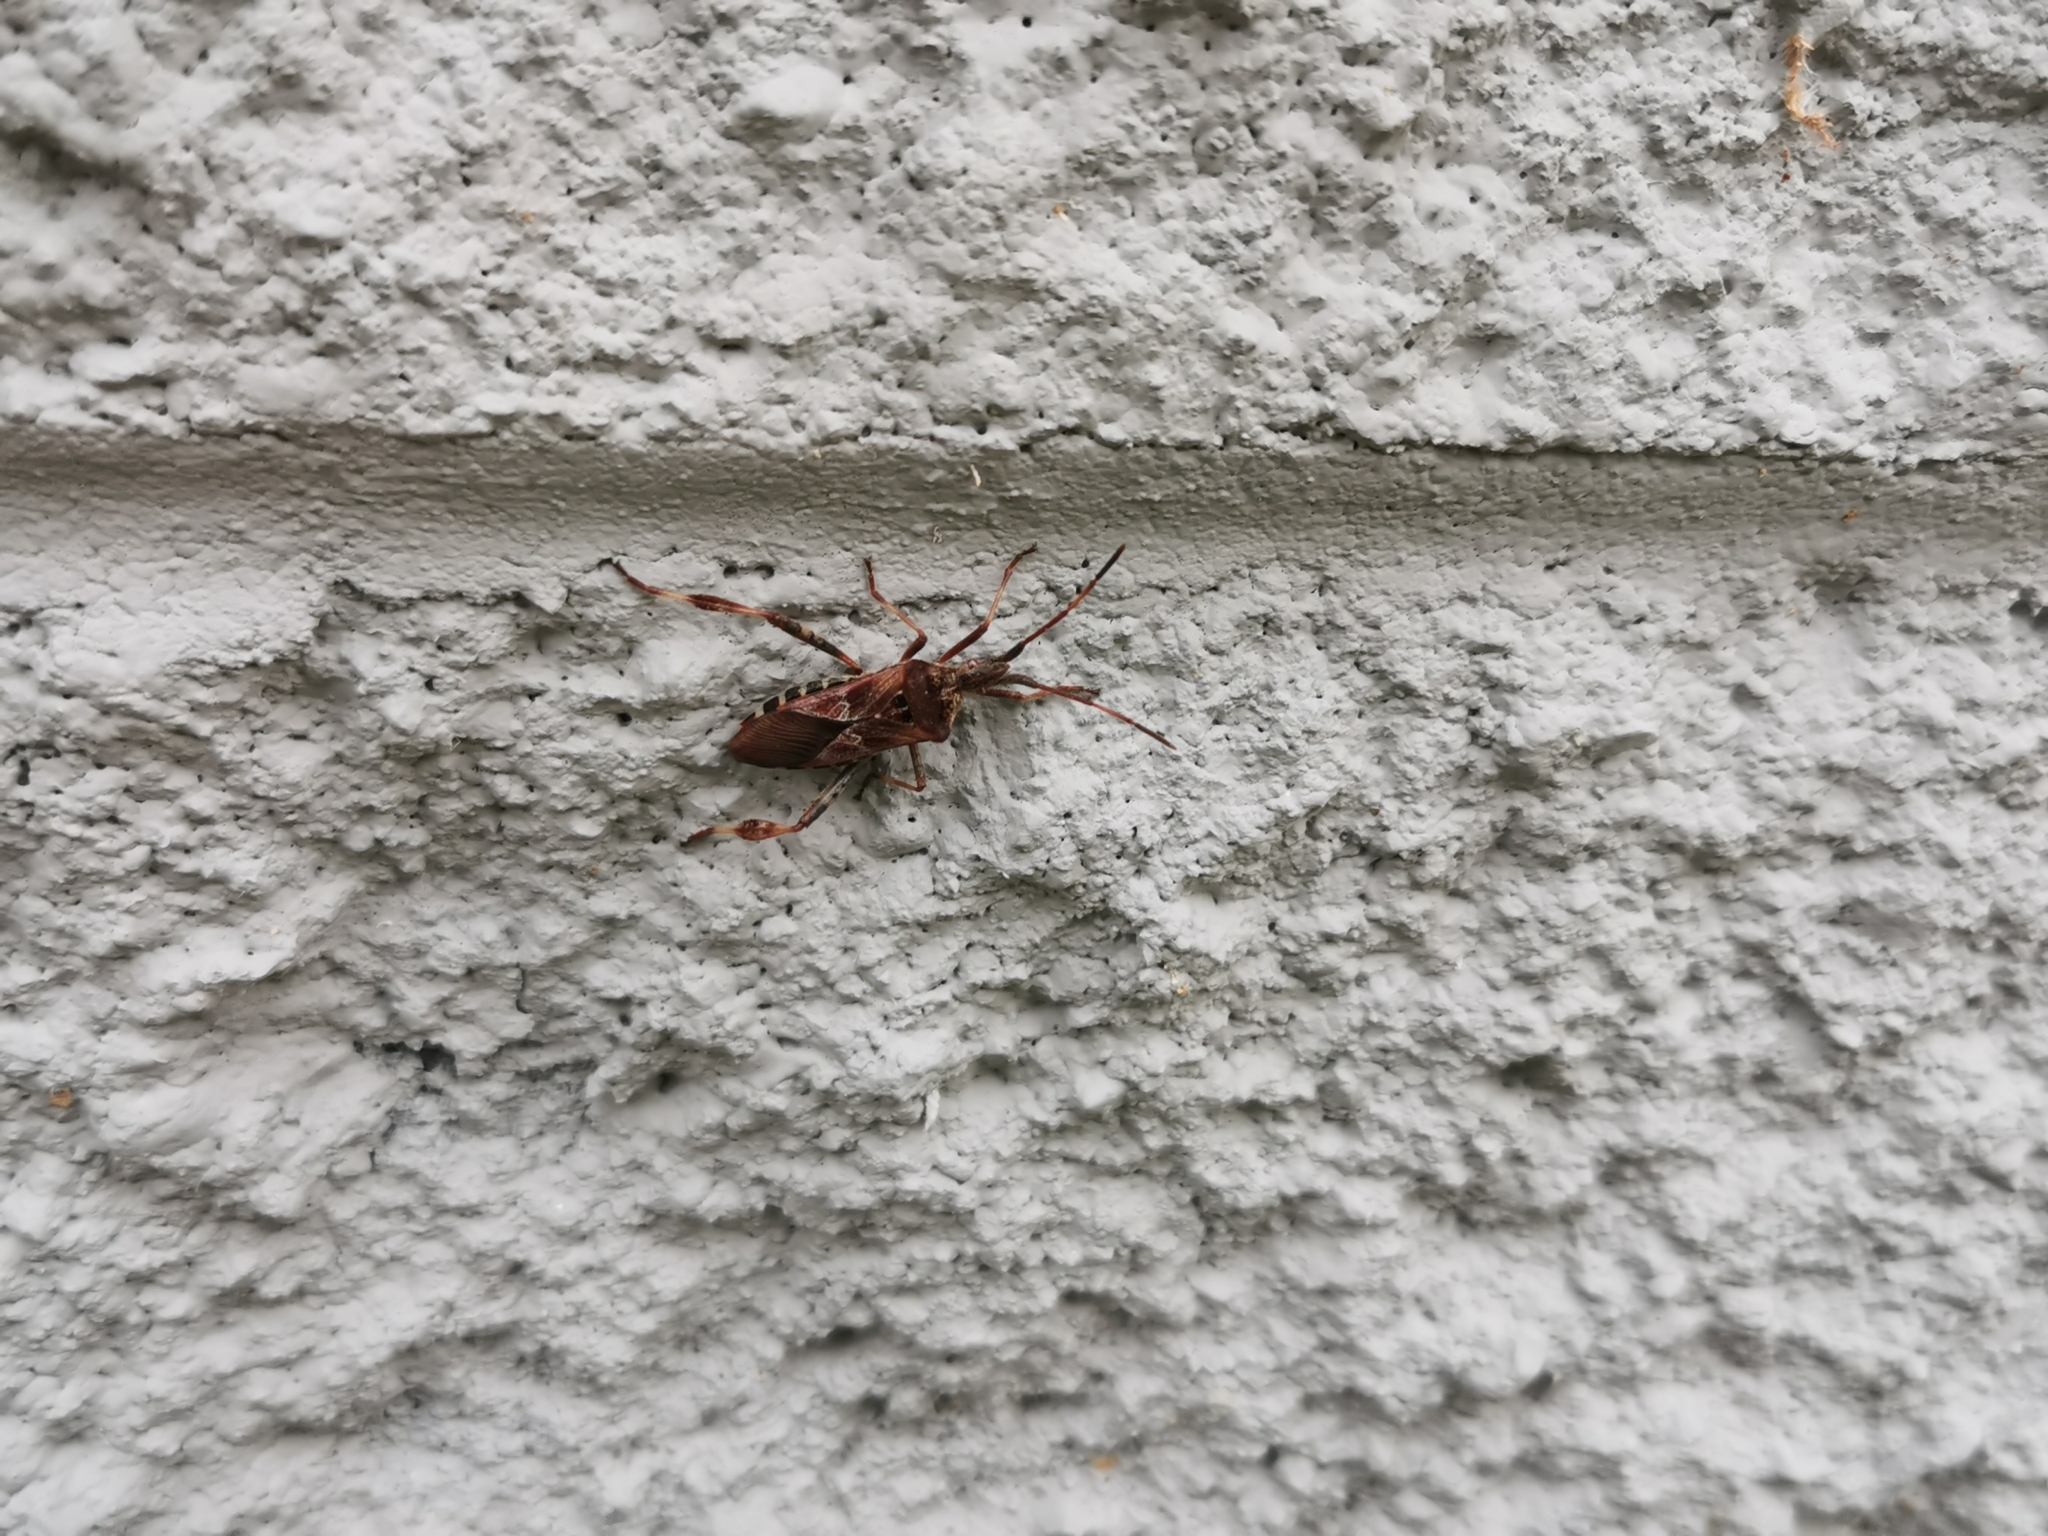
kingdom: Animalia
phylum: Arthropoda
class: Insecta
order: Hemiptera
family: Coreidae
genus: Leptoglossus
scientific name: Leptoglossus occidentalis
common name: Western conifer-seed bug
